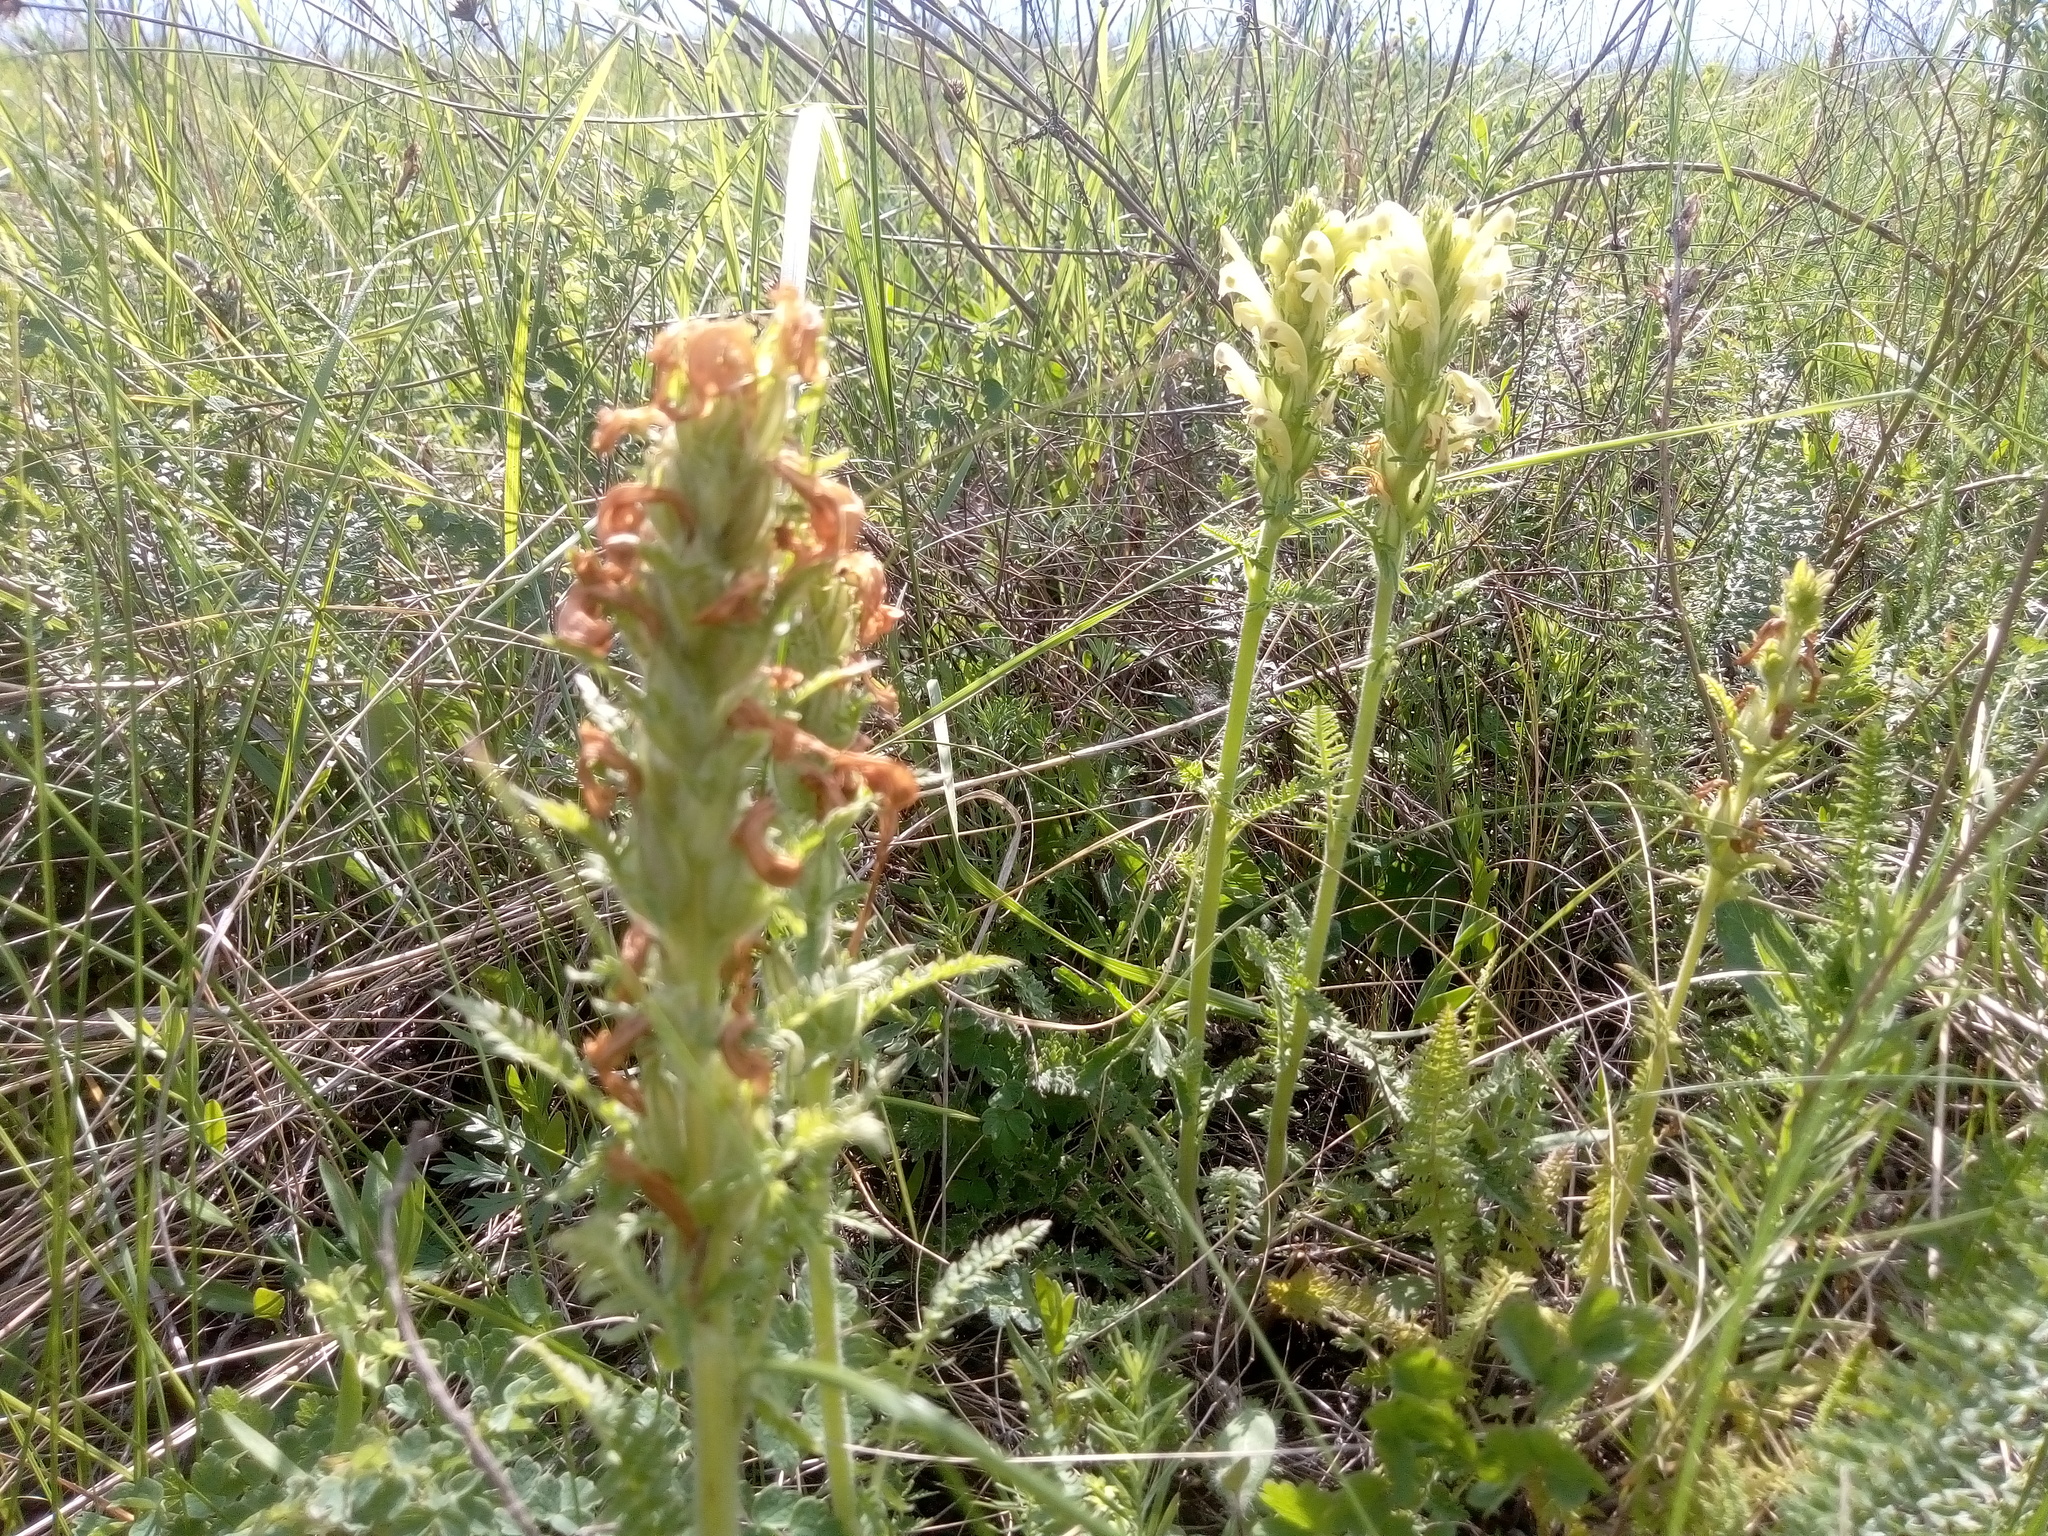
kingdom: Plantae
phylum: Tracheophyta
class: Magnoliopsida
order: Lamiales
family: Orobanchaceae
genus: Pedicularis
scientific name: Pedicularis kaufmannii
